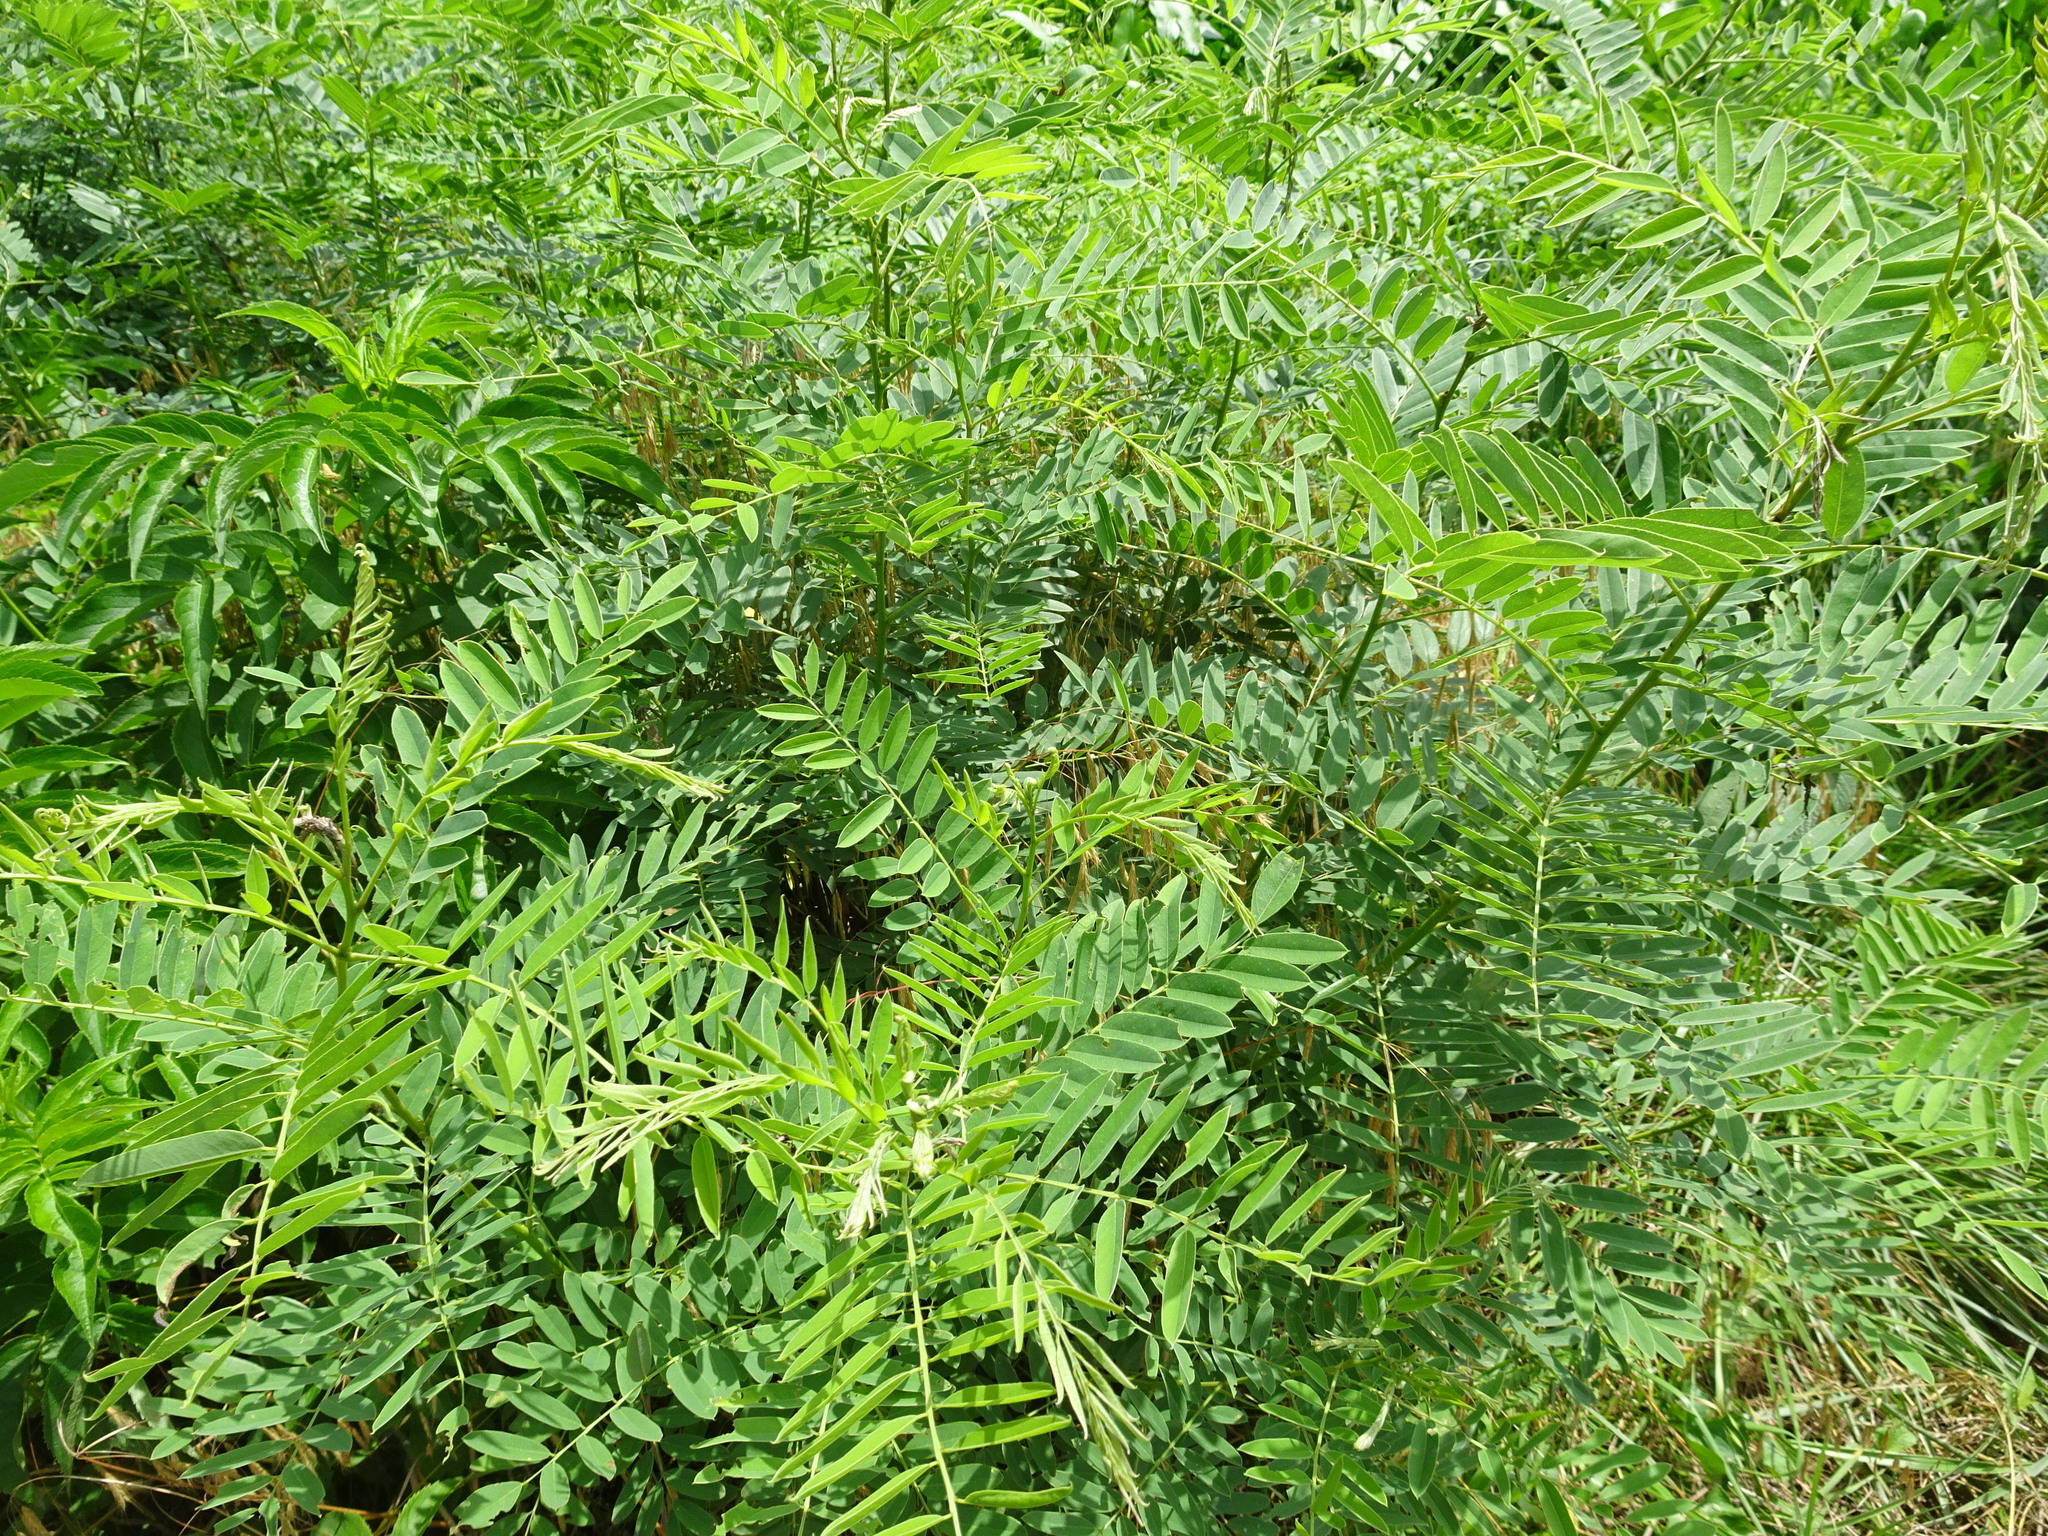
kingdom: Plantae
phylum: Tracheophyta
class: Magnoliopsida
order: Fabales
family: Fabaceae
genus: Amorpha
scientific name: Amorpha fruticosa
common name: False indigo
